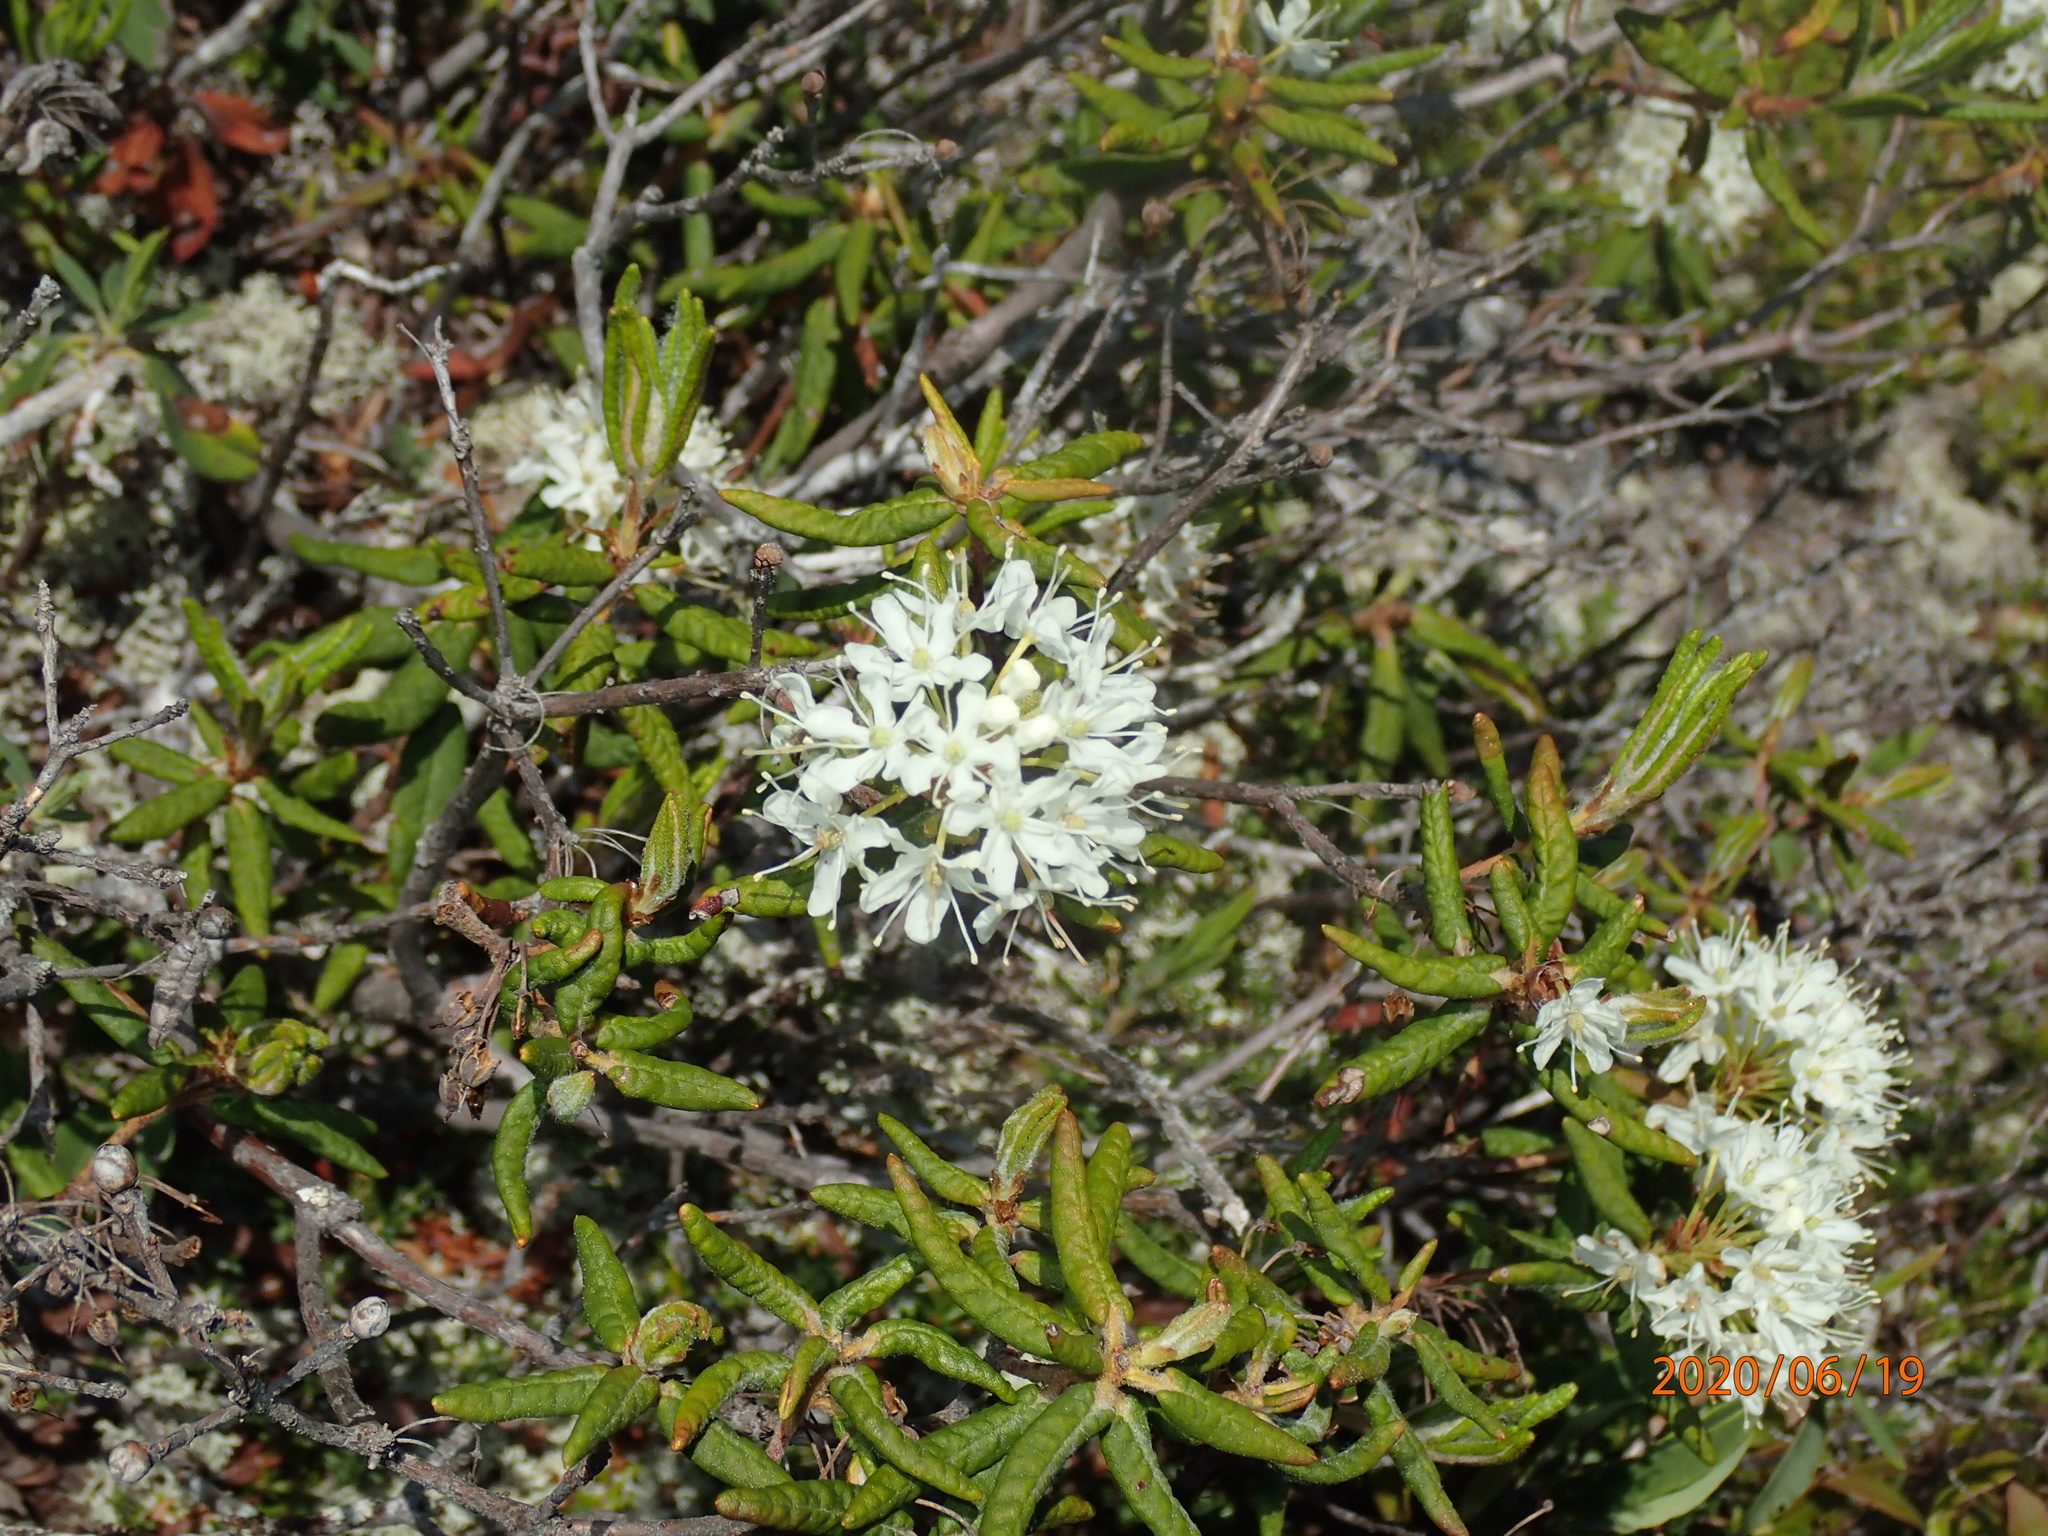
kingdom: Plantae
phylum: Tracheophyta
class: Magnoliopsida
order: Ericales
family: Ericaceae
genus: Rhododendron
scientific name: Rhododendron groenlandicum
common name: Bog labrador tea
